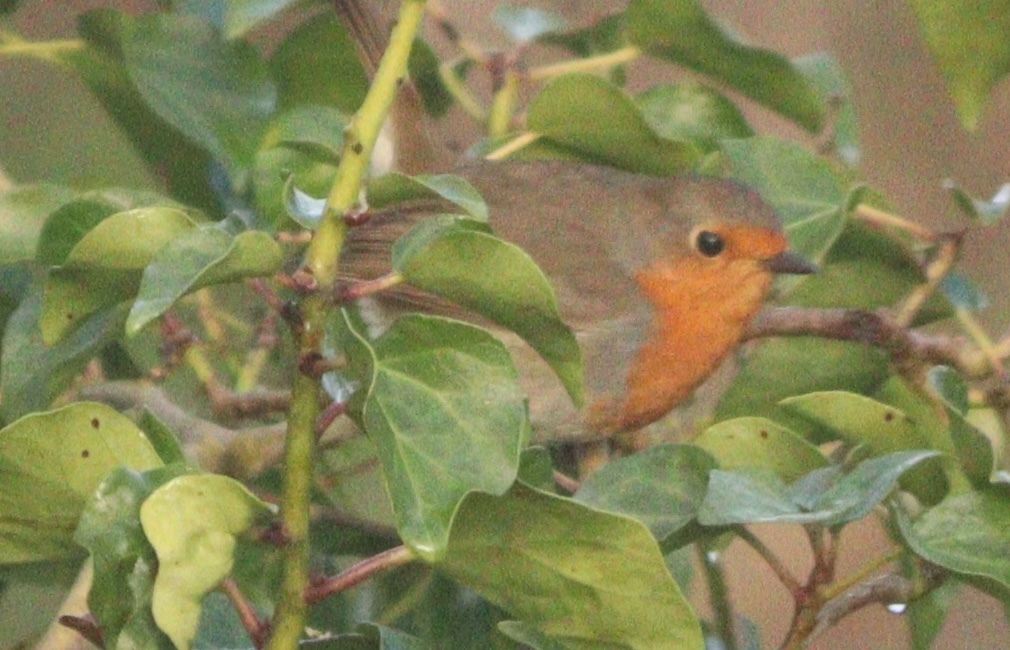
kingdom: Animalia
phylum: Chordata
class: Aves
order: Passeriformes
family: Muscicapidae
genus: Erithacus
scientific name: Erithacus rubecula
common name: European robin
